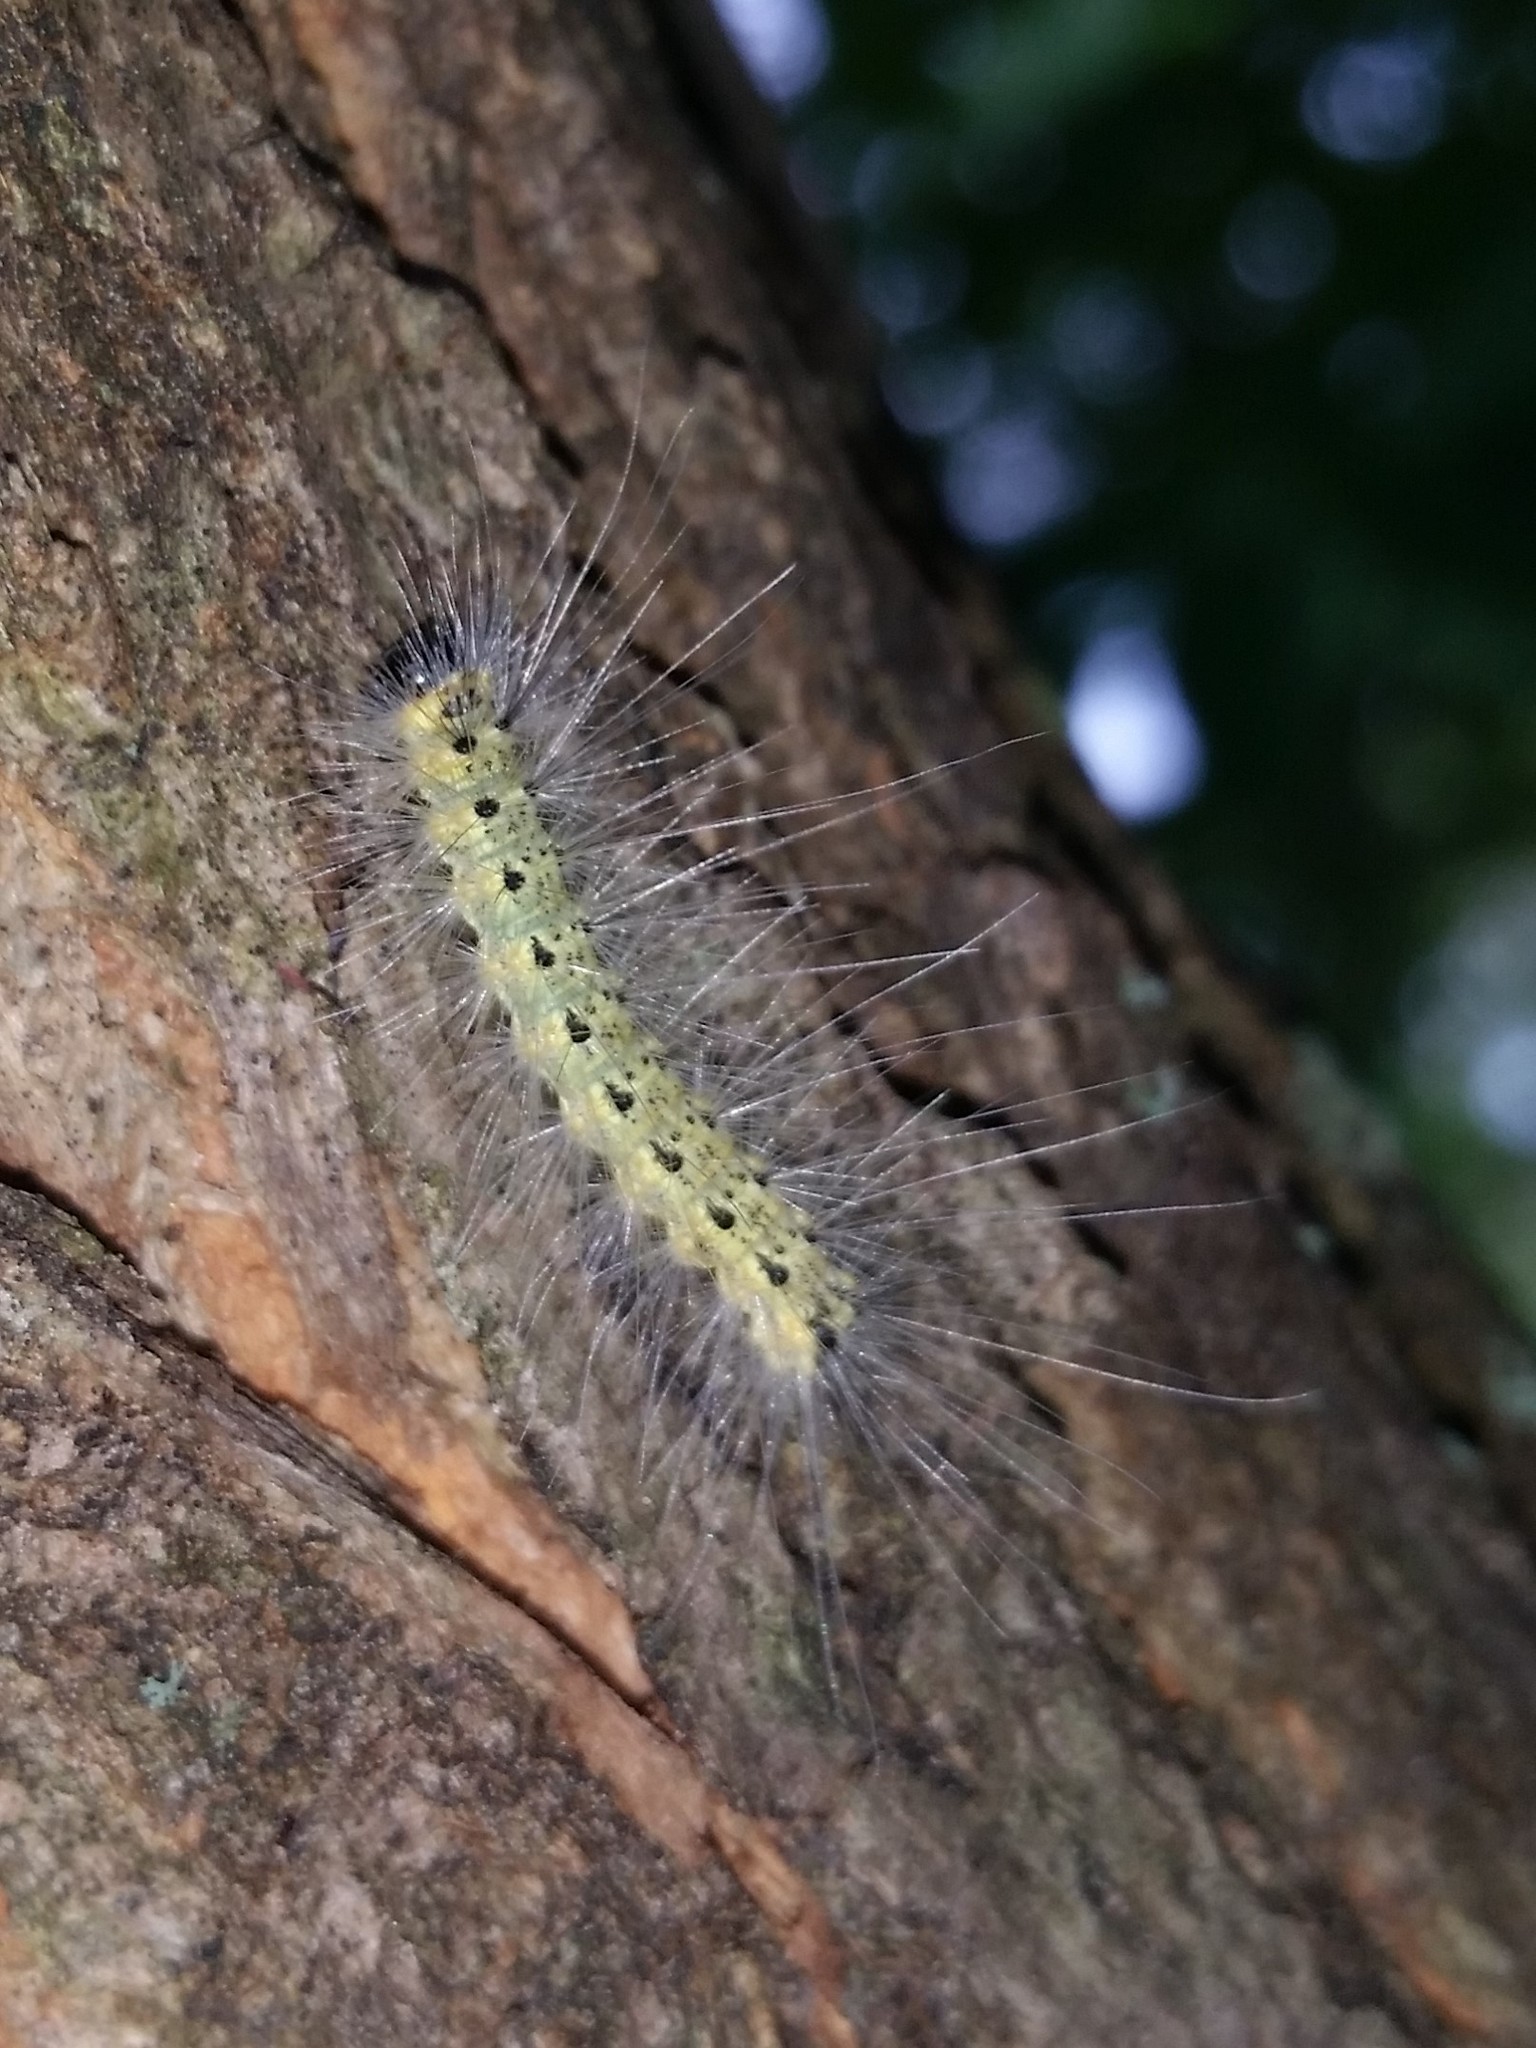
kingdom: Animalia
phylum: Arthropoda
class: Insecta
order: Lepidoptera
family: Erebidae
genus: Hyphantria
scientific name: Hyphantria cunea
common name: American white moth
